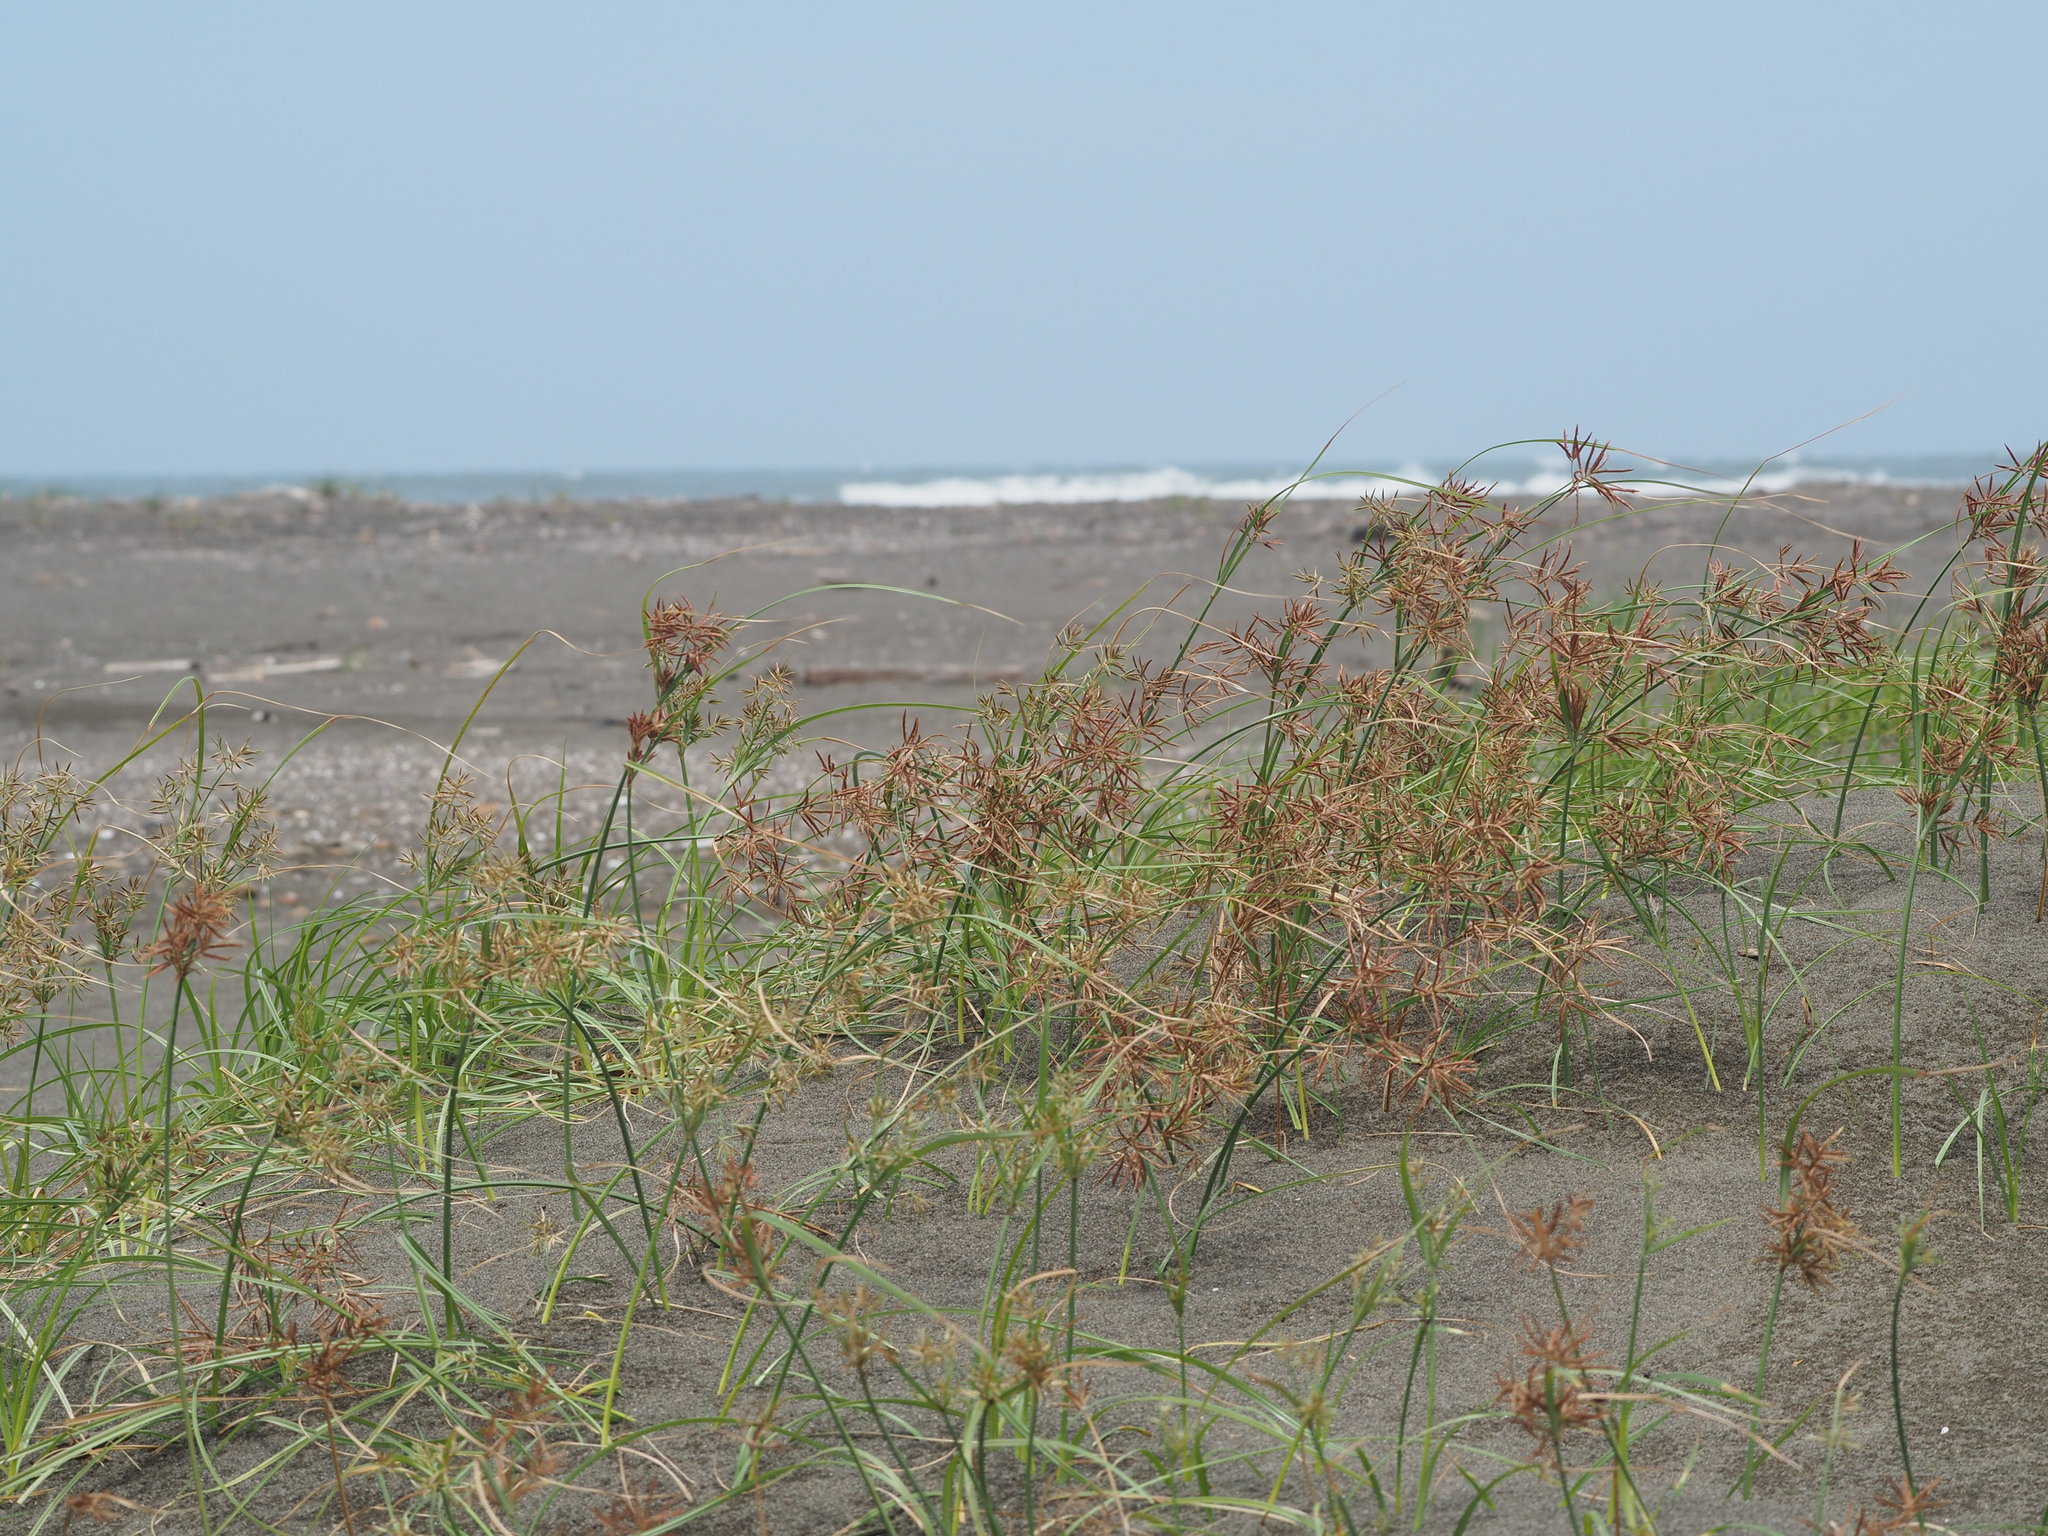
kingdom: Plantae
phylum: Tracheophyta
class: Liliopsida
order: Poales
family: Cyperaceae
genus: Cyperus
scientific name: Cyperus rotundus
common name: Nutgrass
